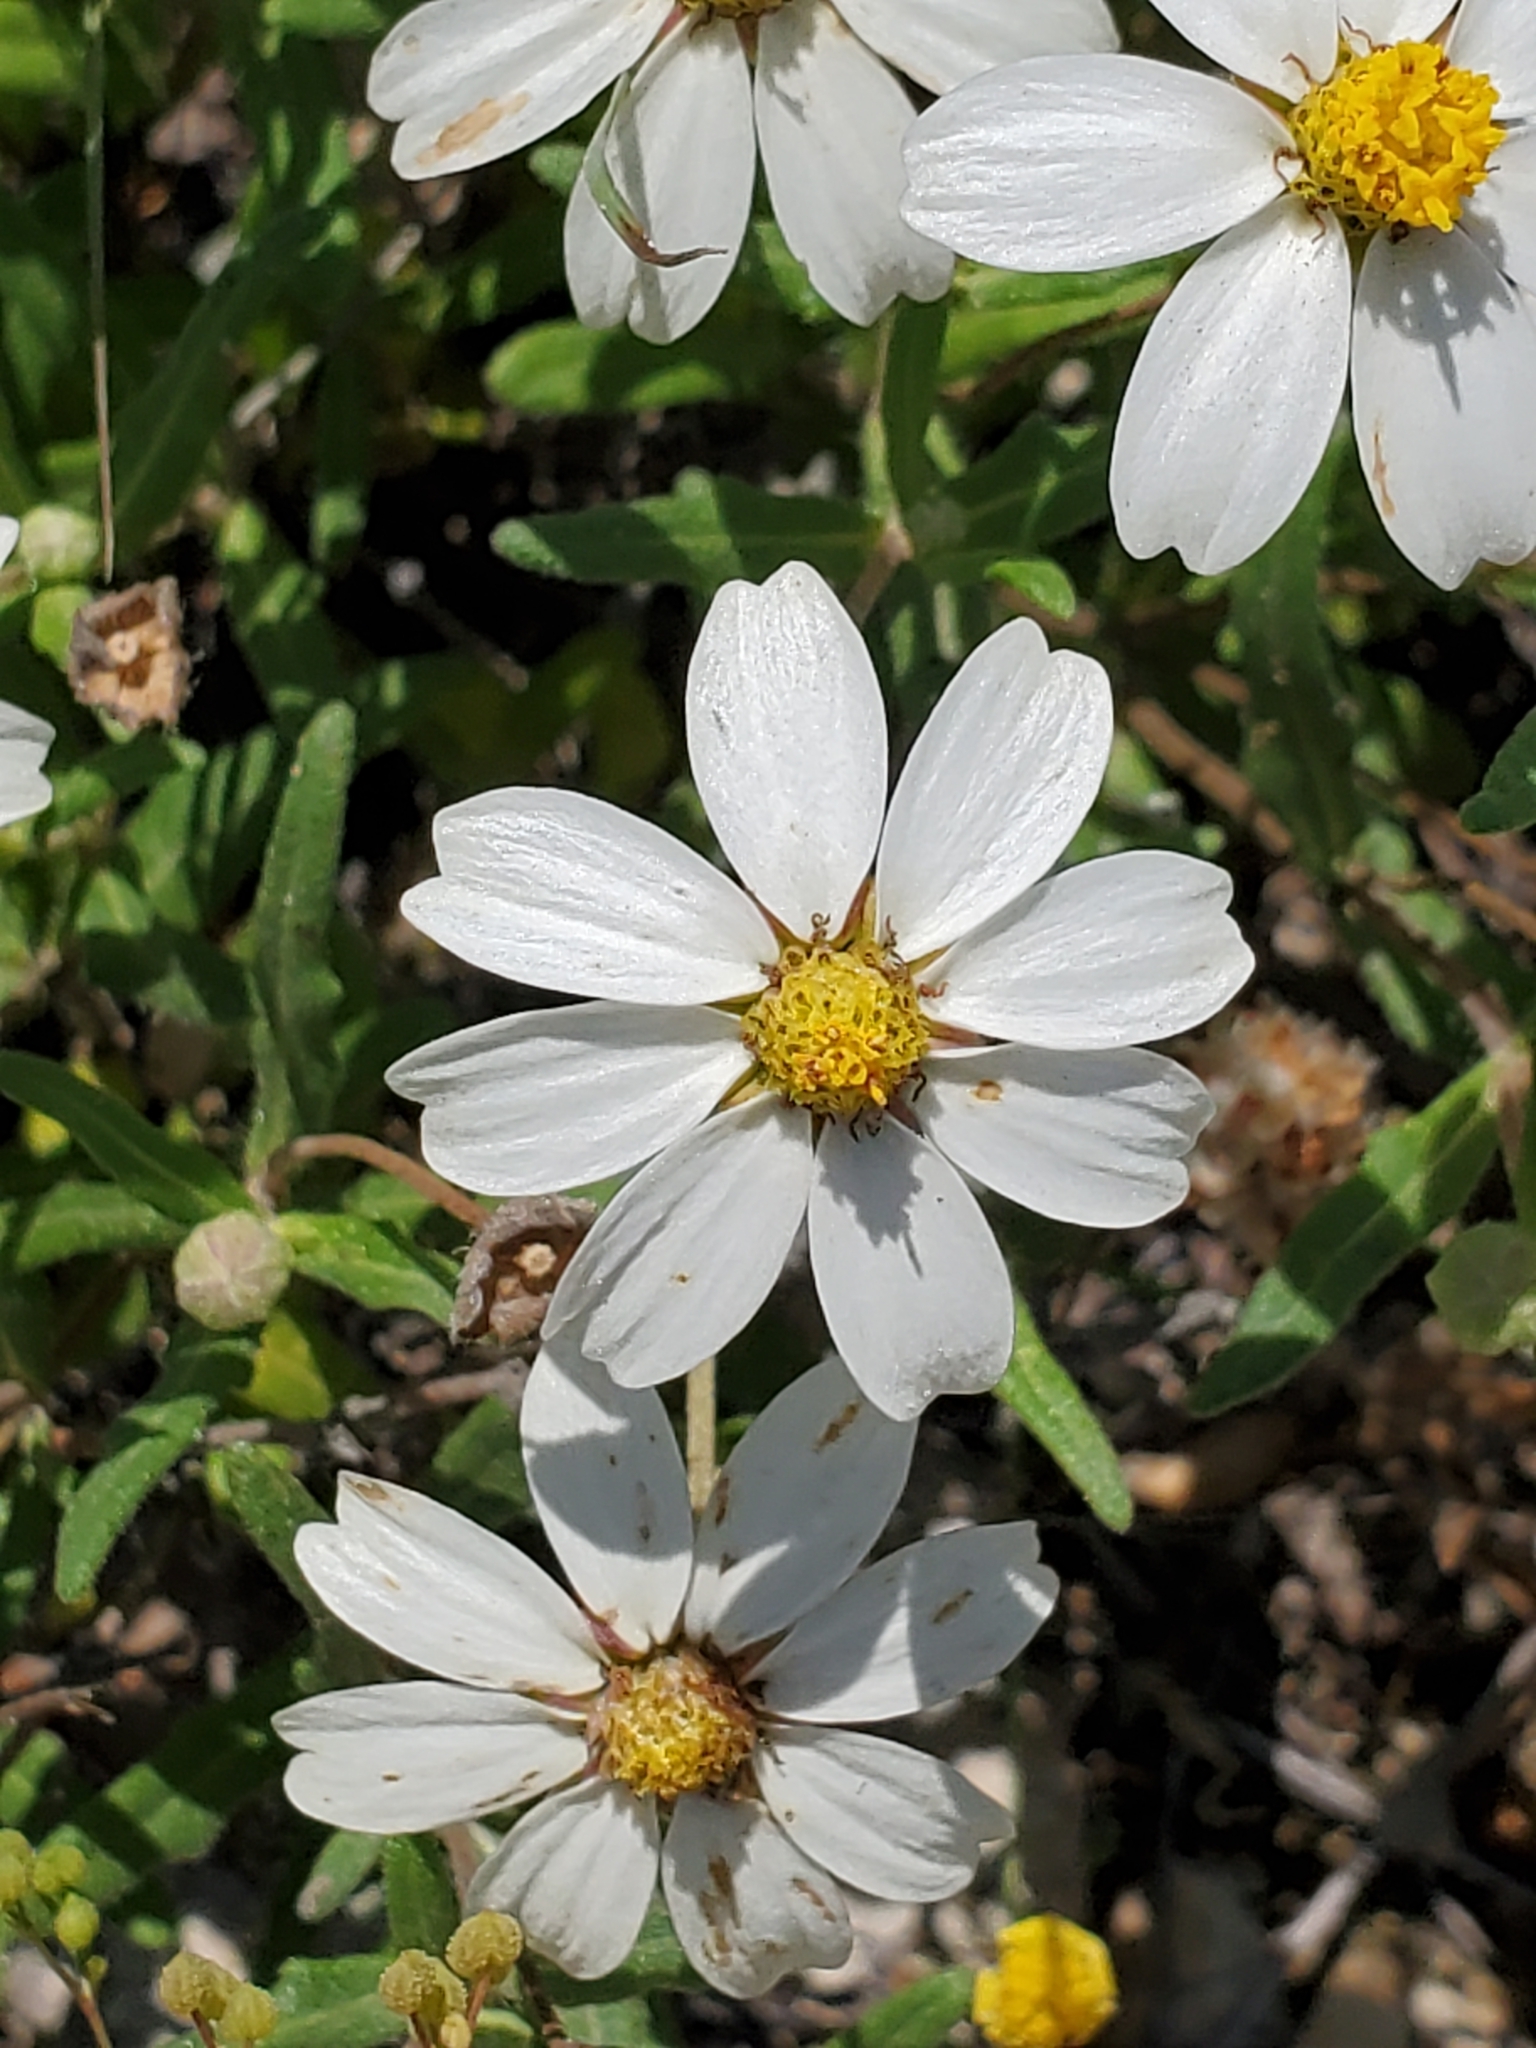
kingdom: Plantae
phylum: Tracheophyta
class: Magnoliopsida
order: Asterales
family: Asteraceae
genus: Melampodium
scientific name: Melampodium leucanthum
